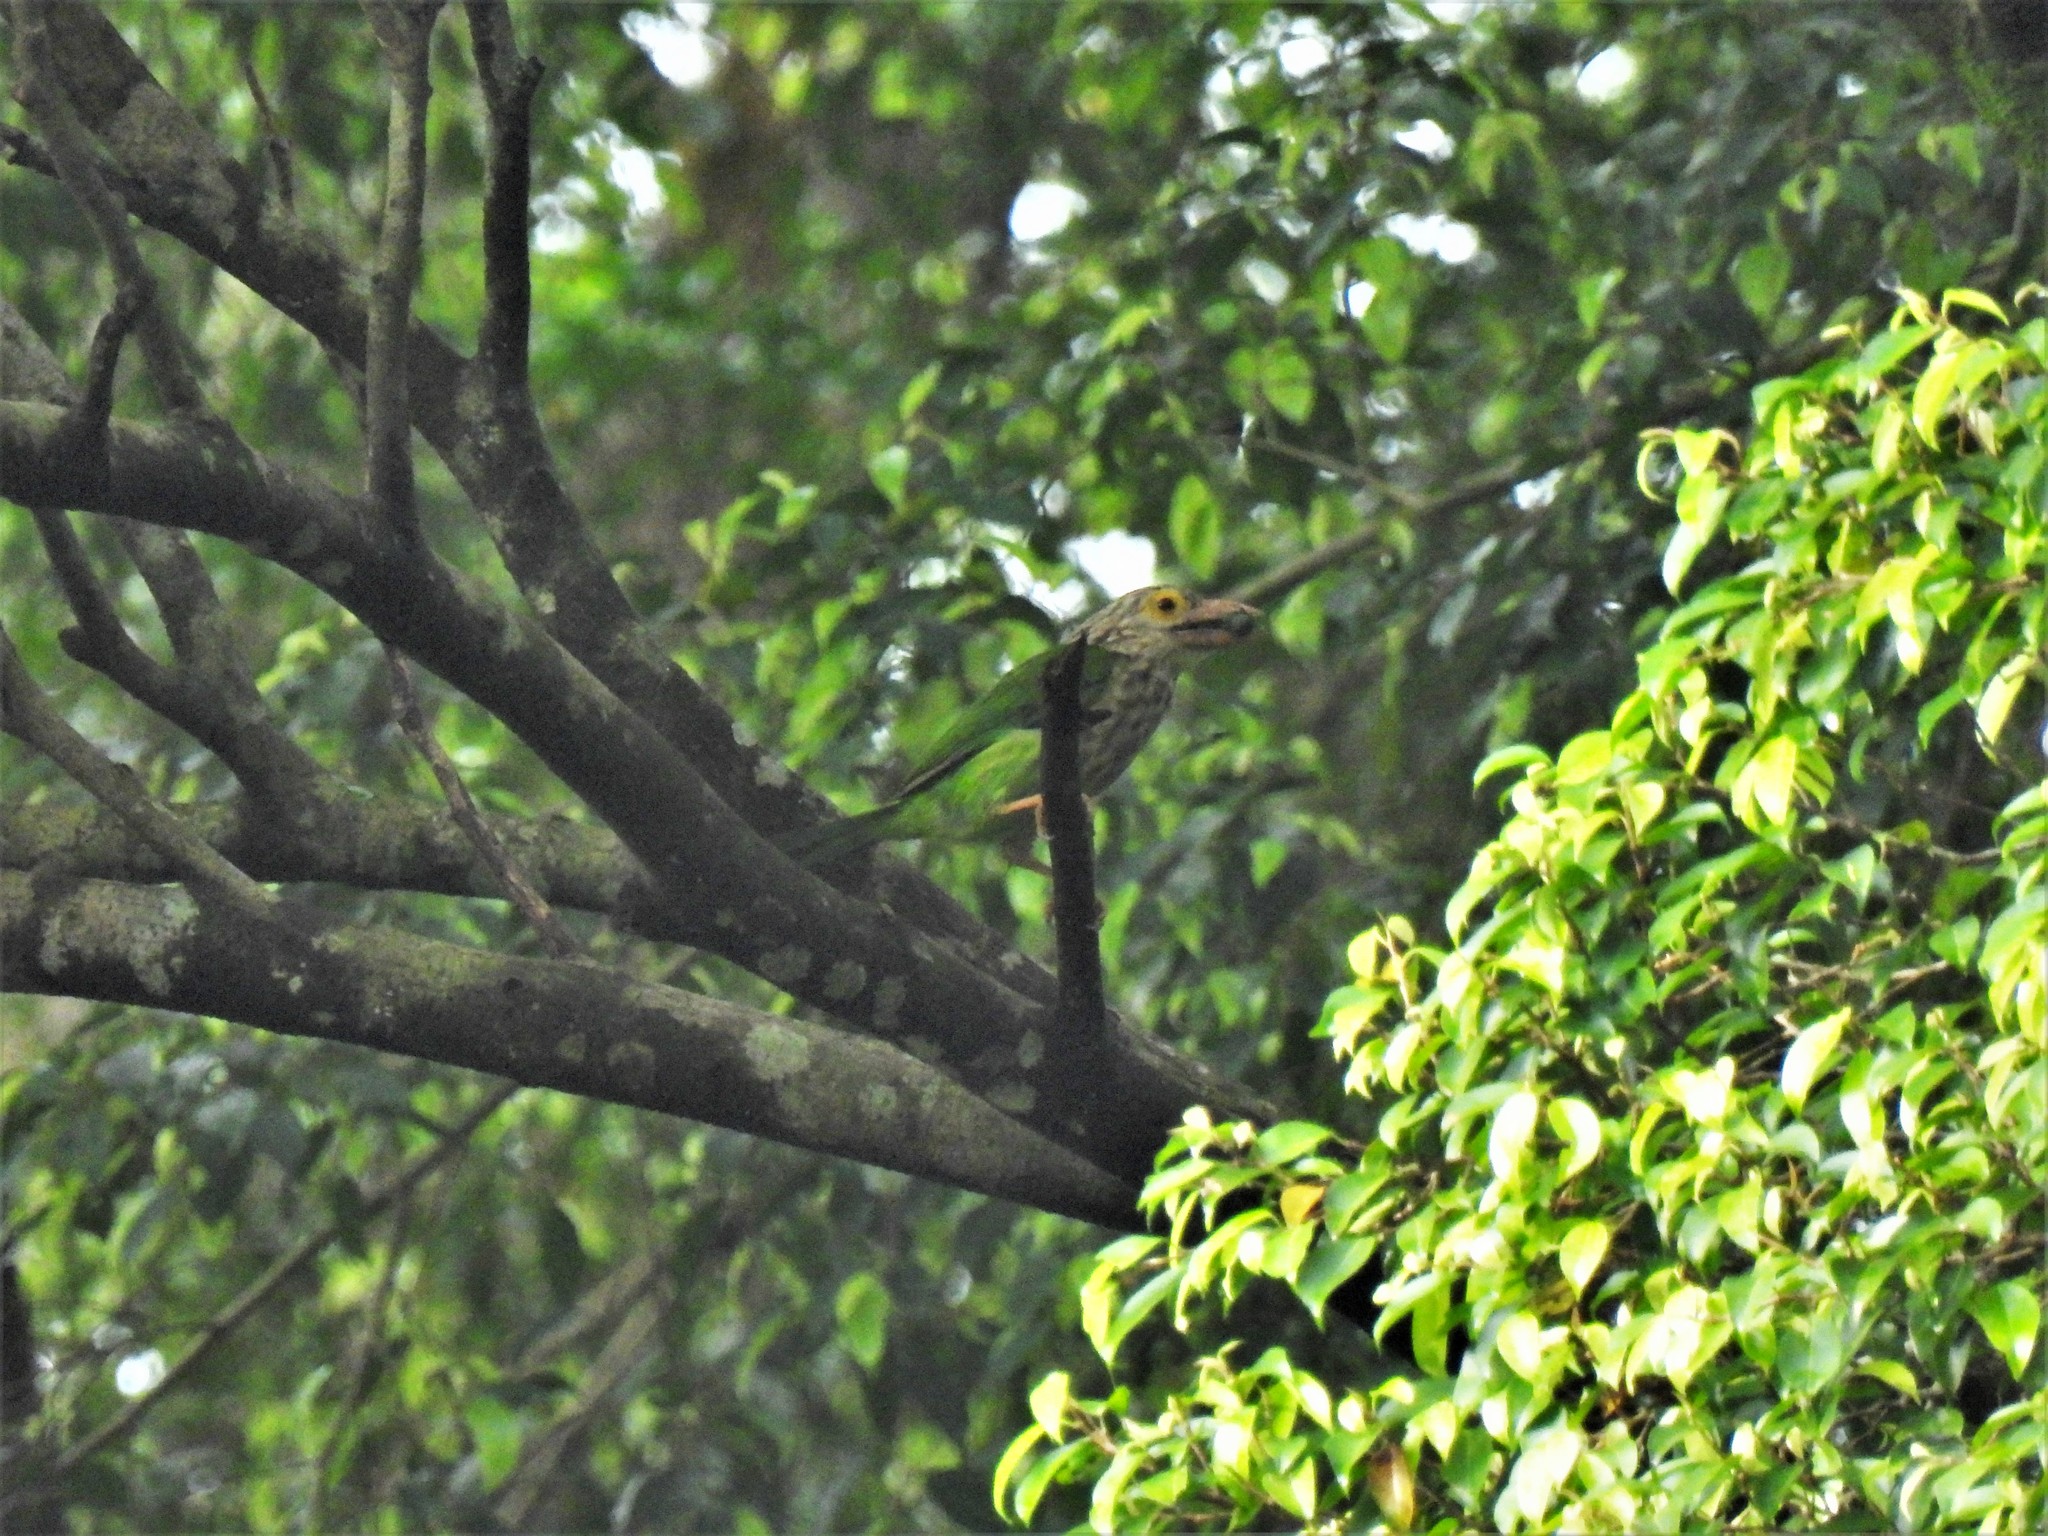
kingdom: Animalia
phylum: Chordata
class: Aves
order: Piciformes
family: Megalaimidae
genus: Psilopogon
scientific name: Psilopogon lineatus
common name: Lineated barbet
